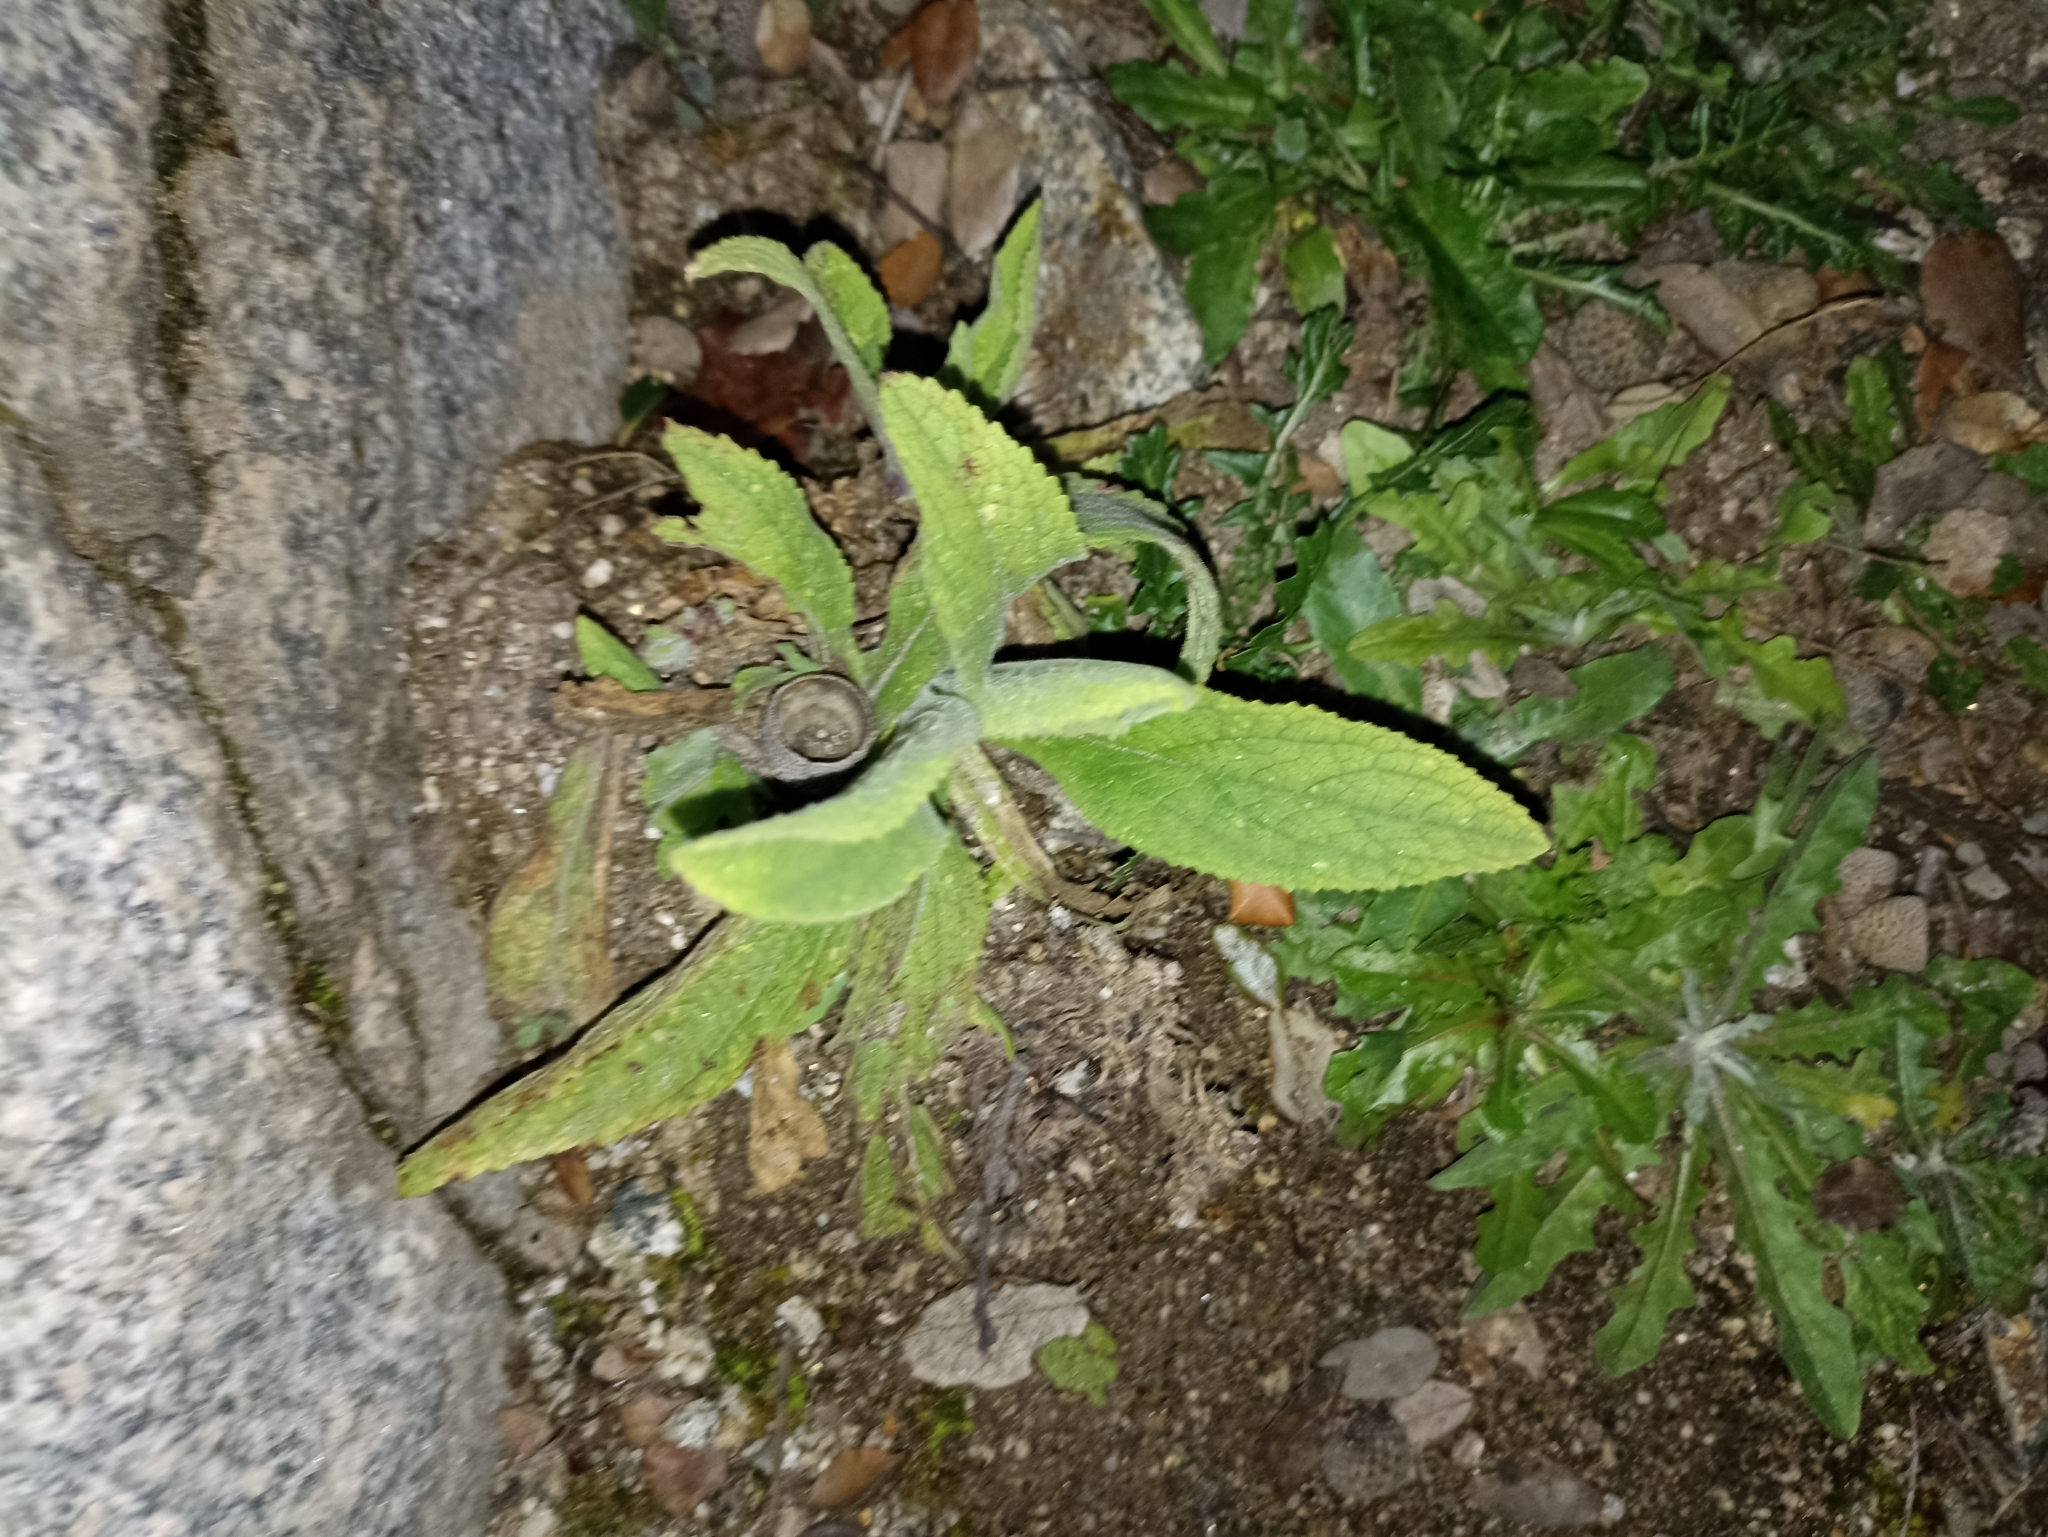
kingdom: Plantae
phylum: Tracheophyta
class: Magnoliopsida
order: Lamiales
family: Plantaginaceae
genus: Digitalis
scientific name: Digitalis thapsi
